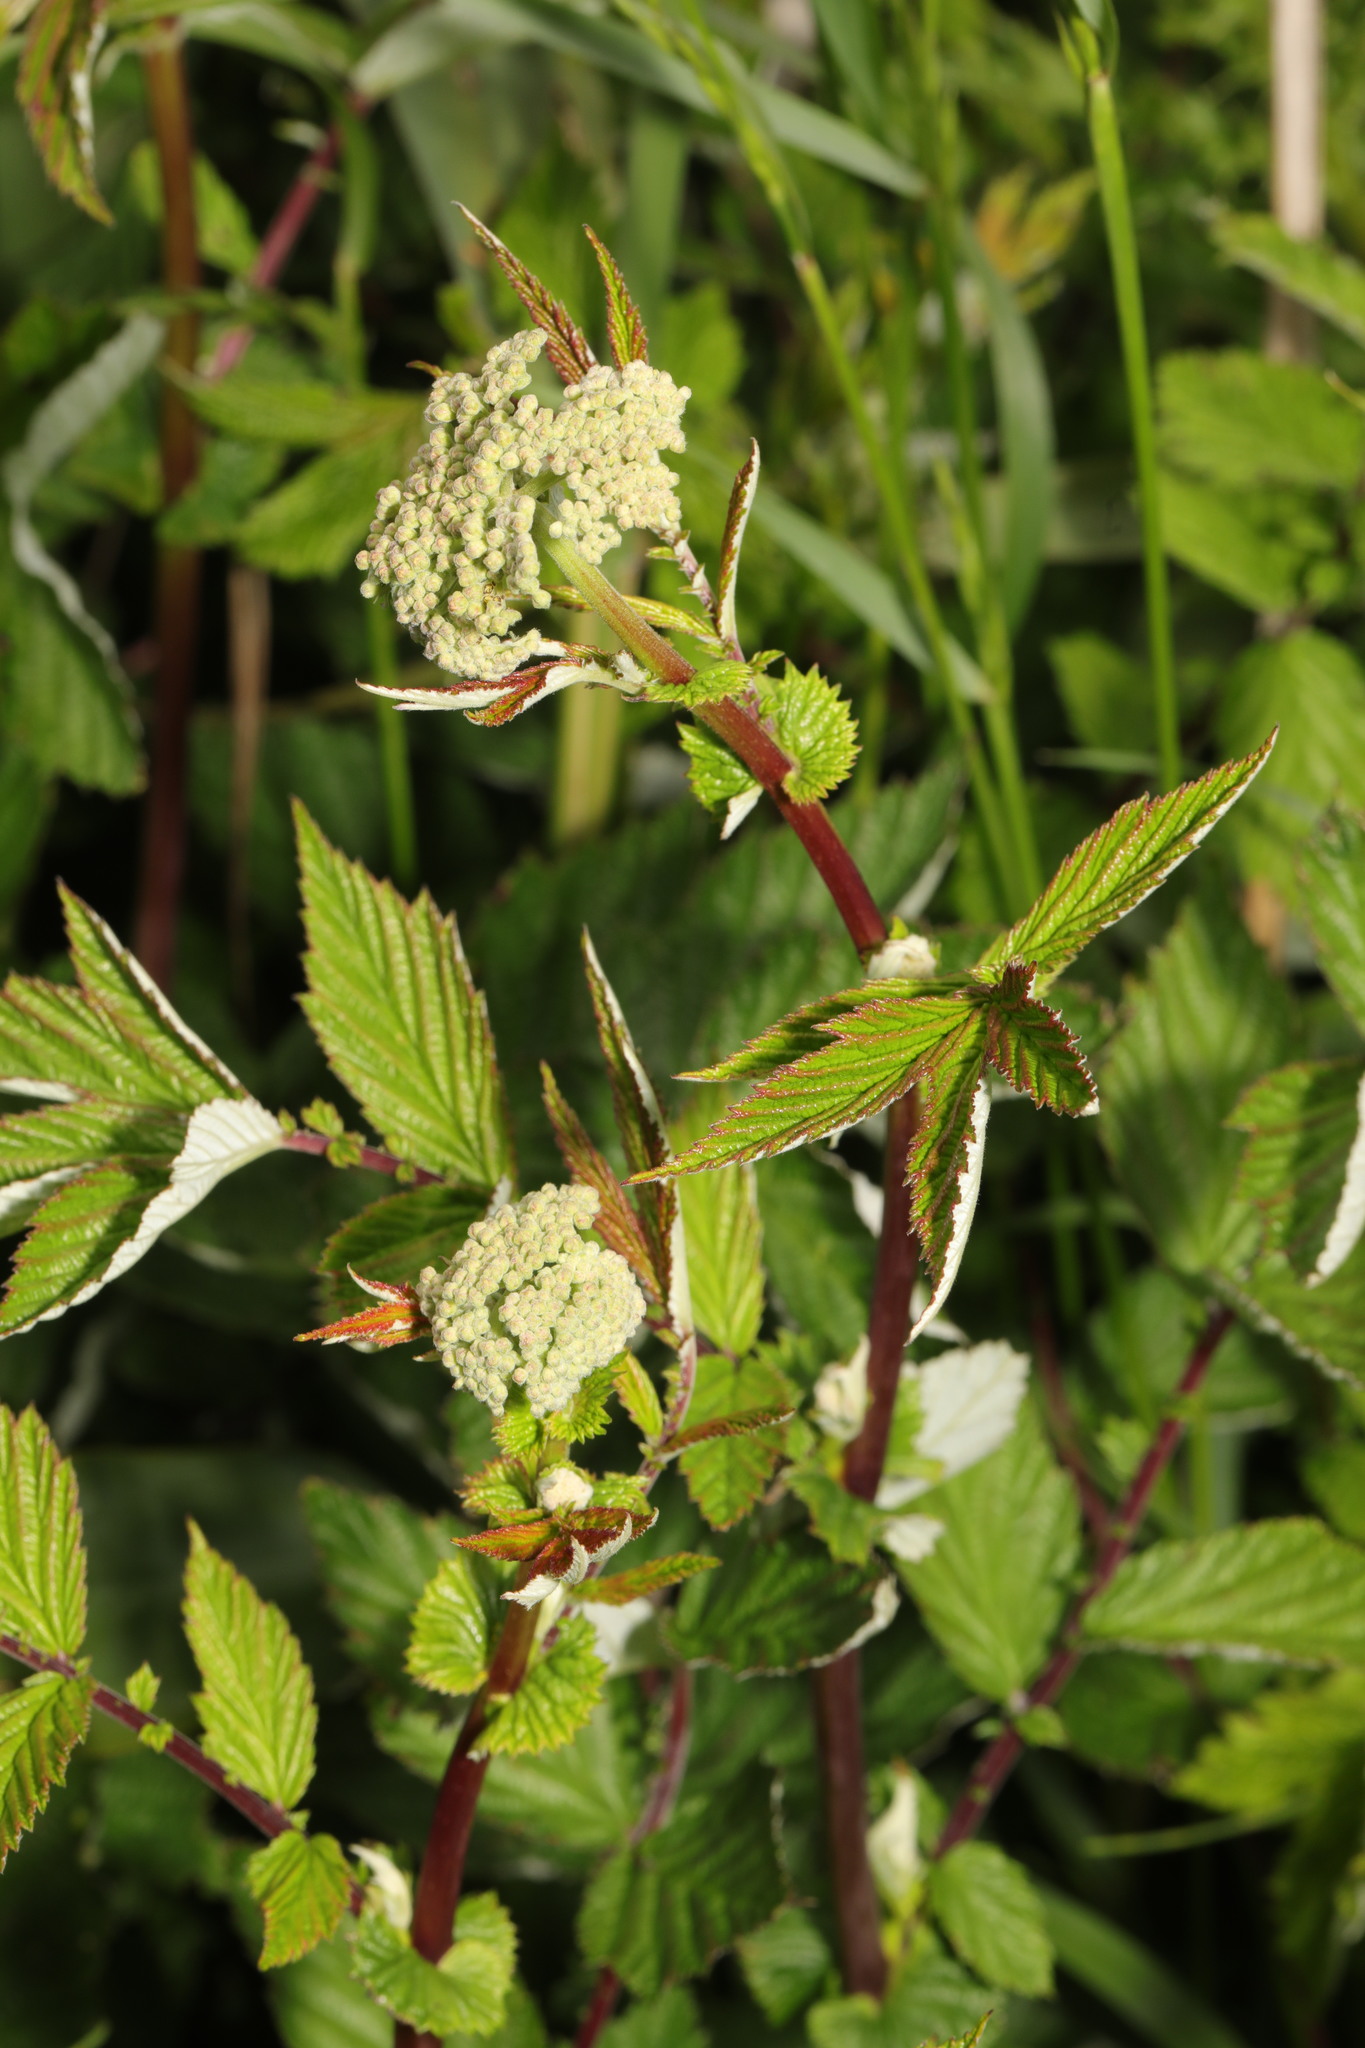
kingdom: Plantae
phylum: Tracheophyta
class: Magnoliopsida
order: Rosales
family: Rosaceae
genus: Filipendula
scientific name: Filipendula ulmaria
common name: Meadowsweet
